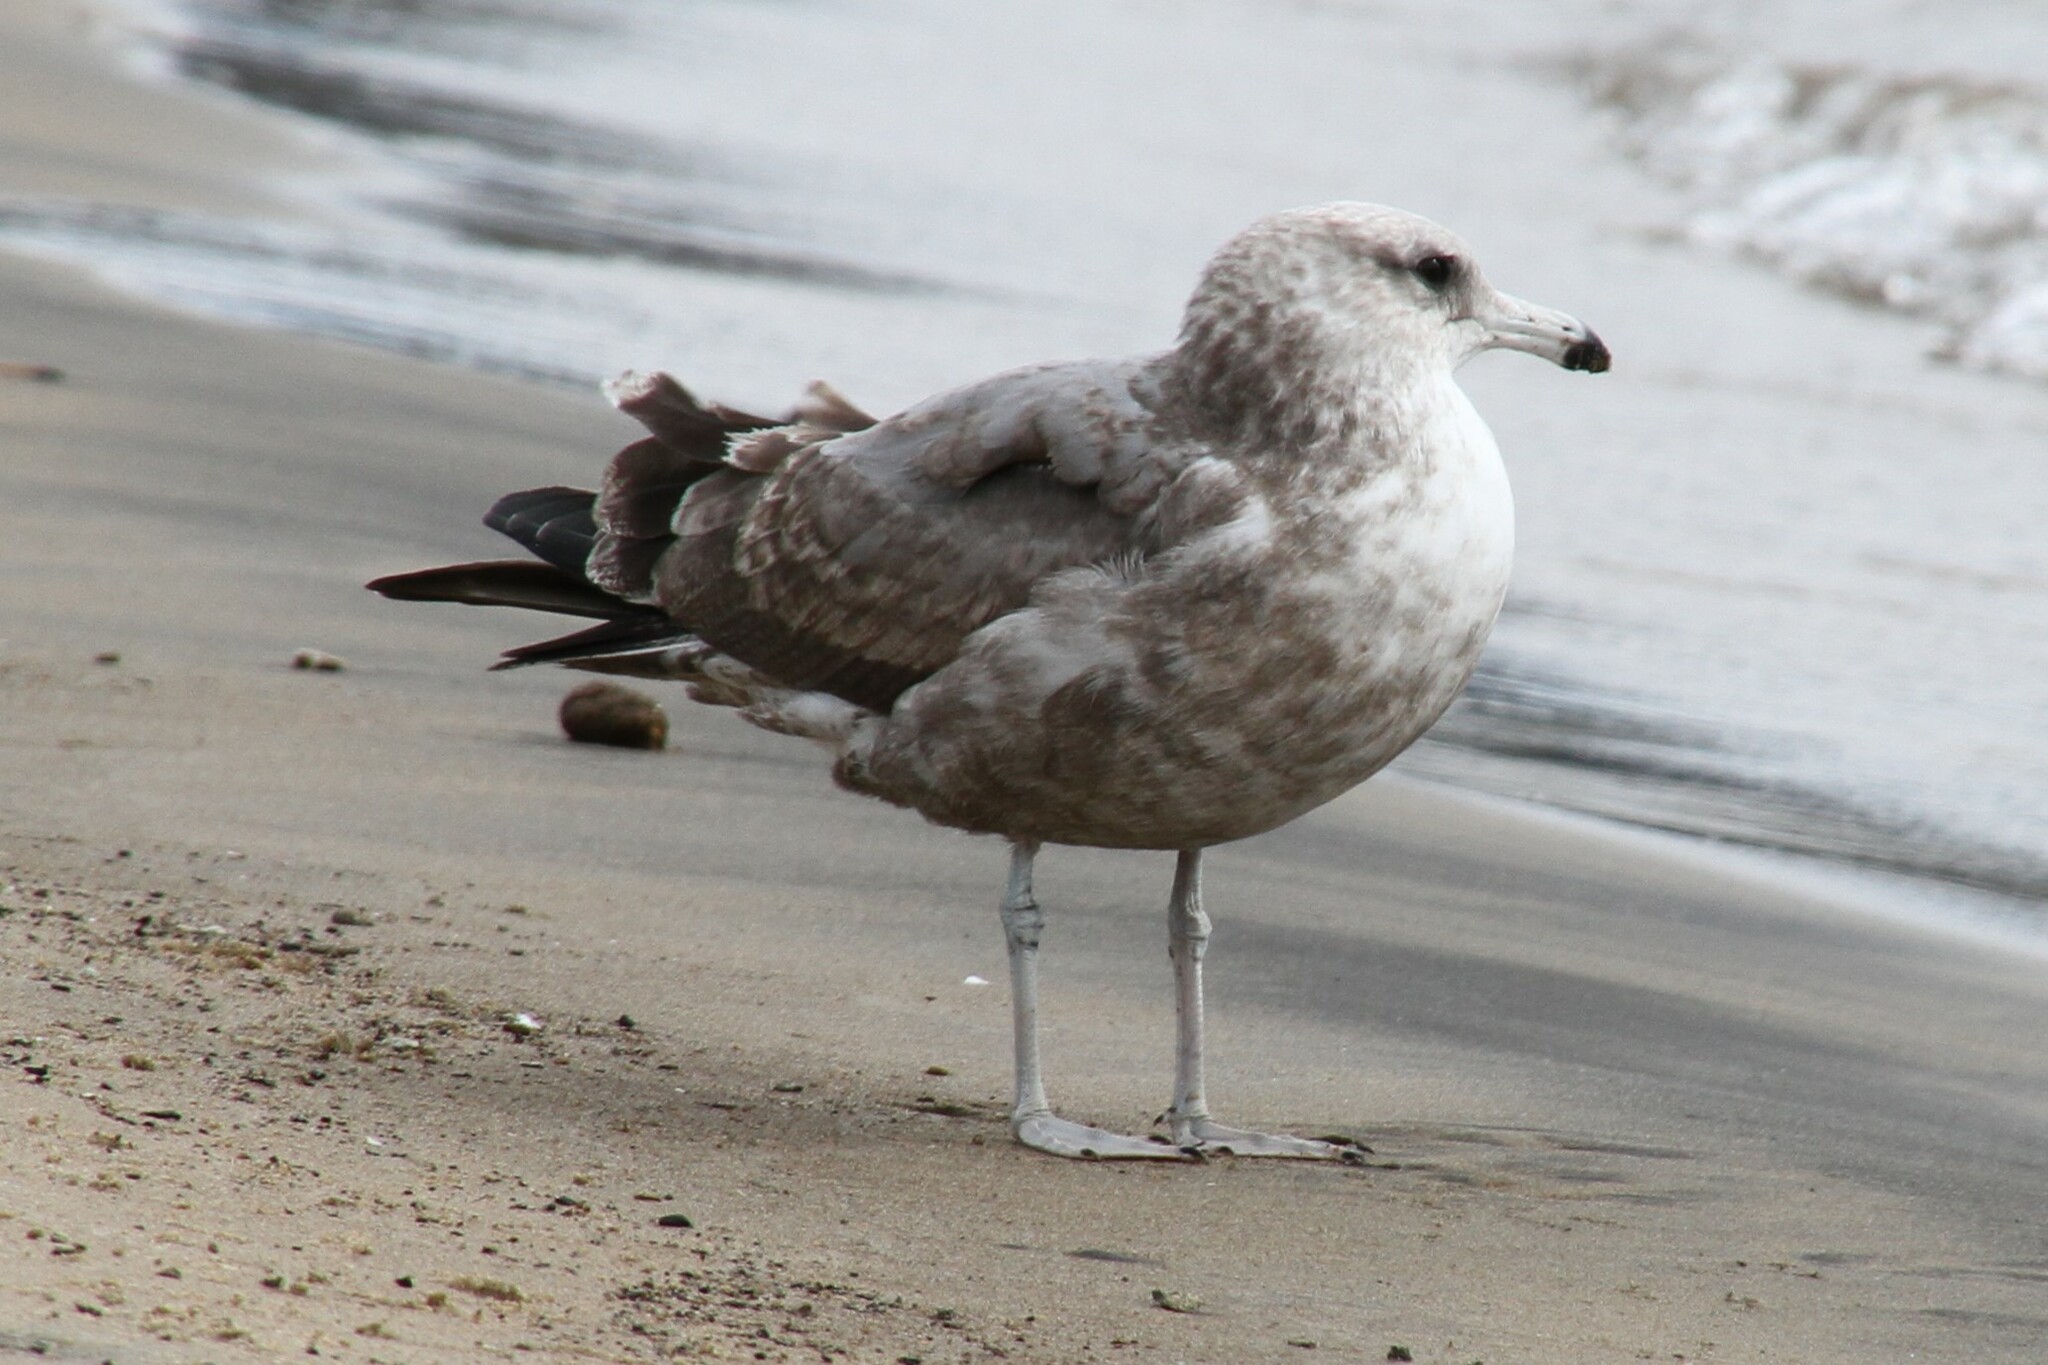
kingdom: Animalia
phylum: Chordata
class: Aves
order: Charadriiformes
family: Laridae
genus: Larus
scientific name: Larus californicus
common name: California gull
